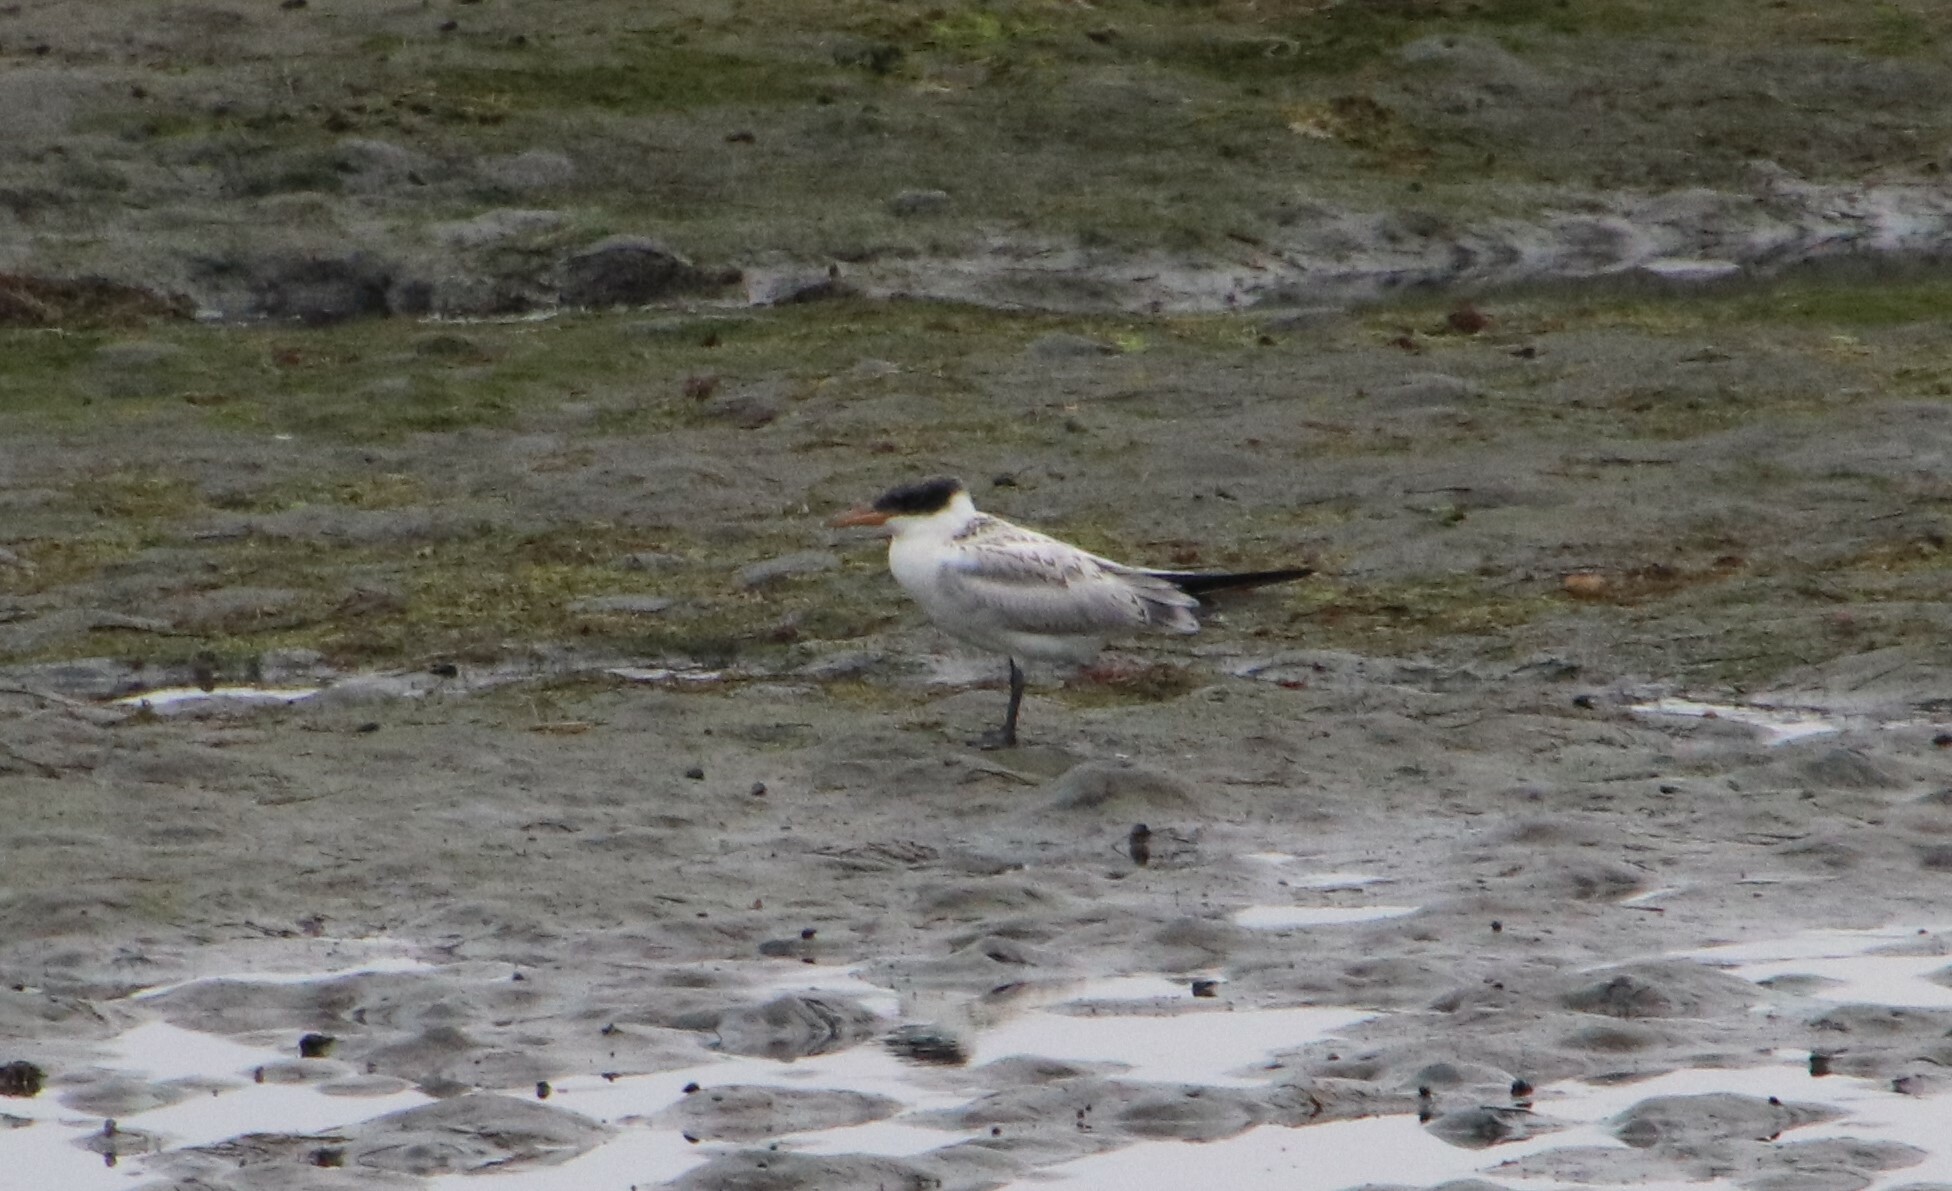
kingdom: Animalia
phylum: Chordata
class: Aves
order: Charadriiformes
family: Laridae
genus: Hydroprogne
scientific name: Hydroprogne caspia
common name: Caspian tern
